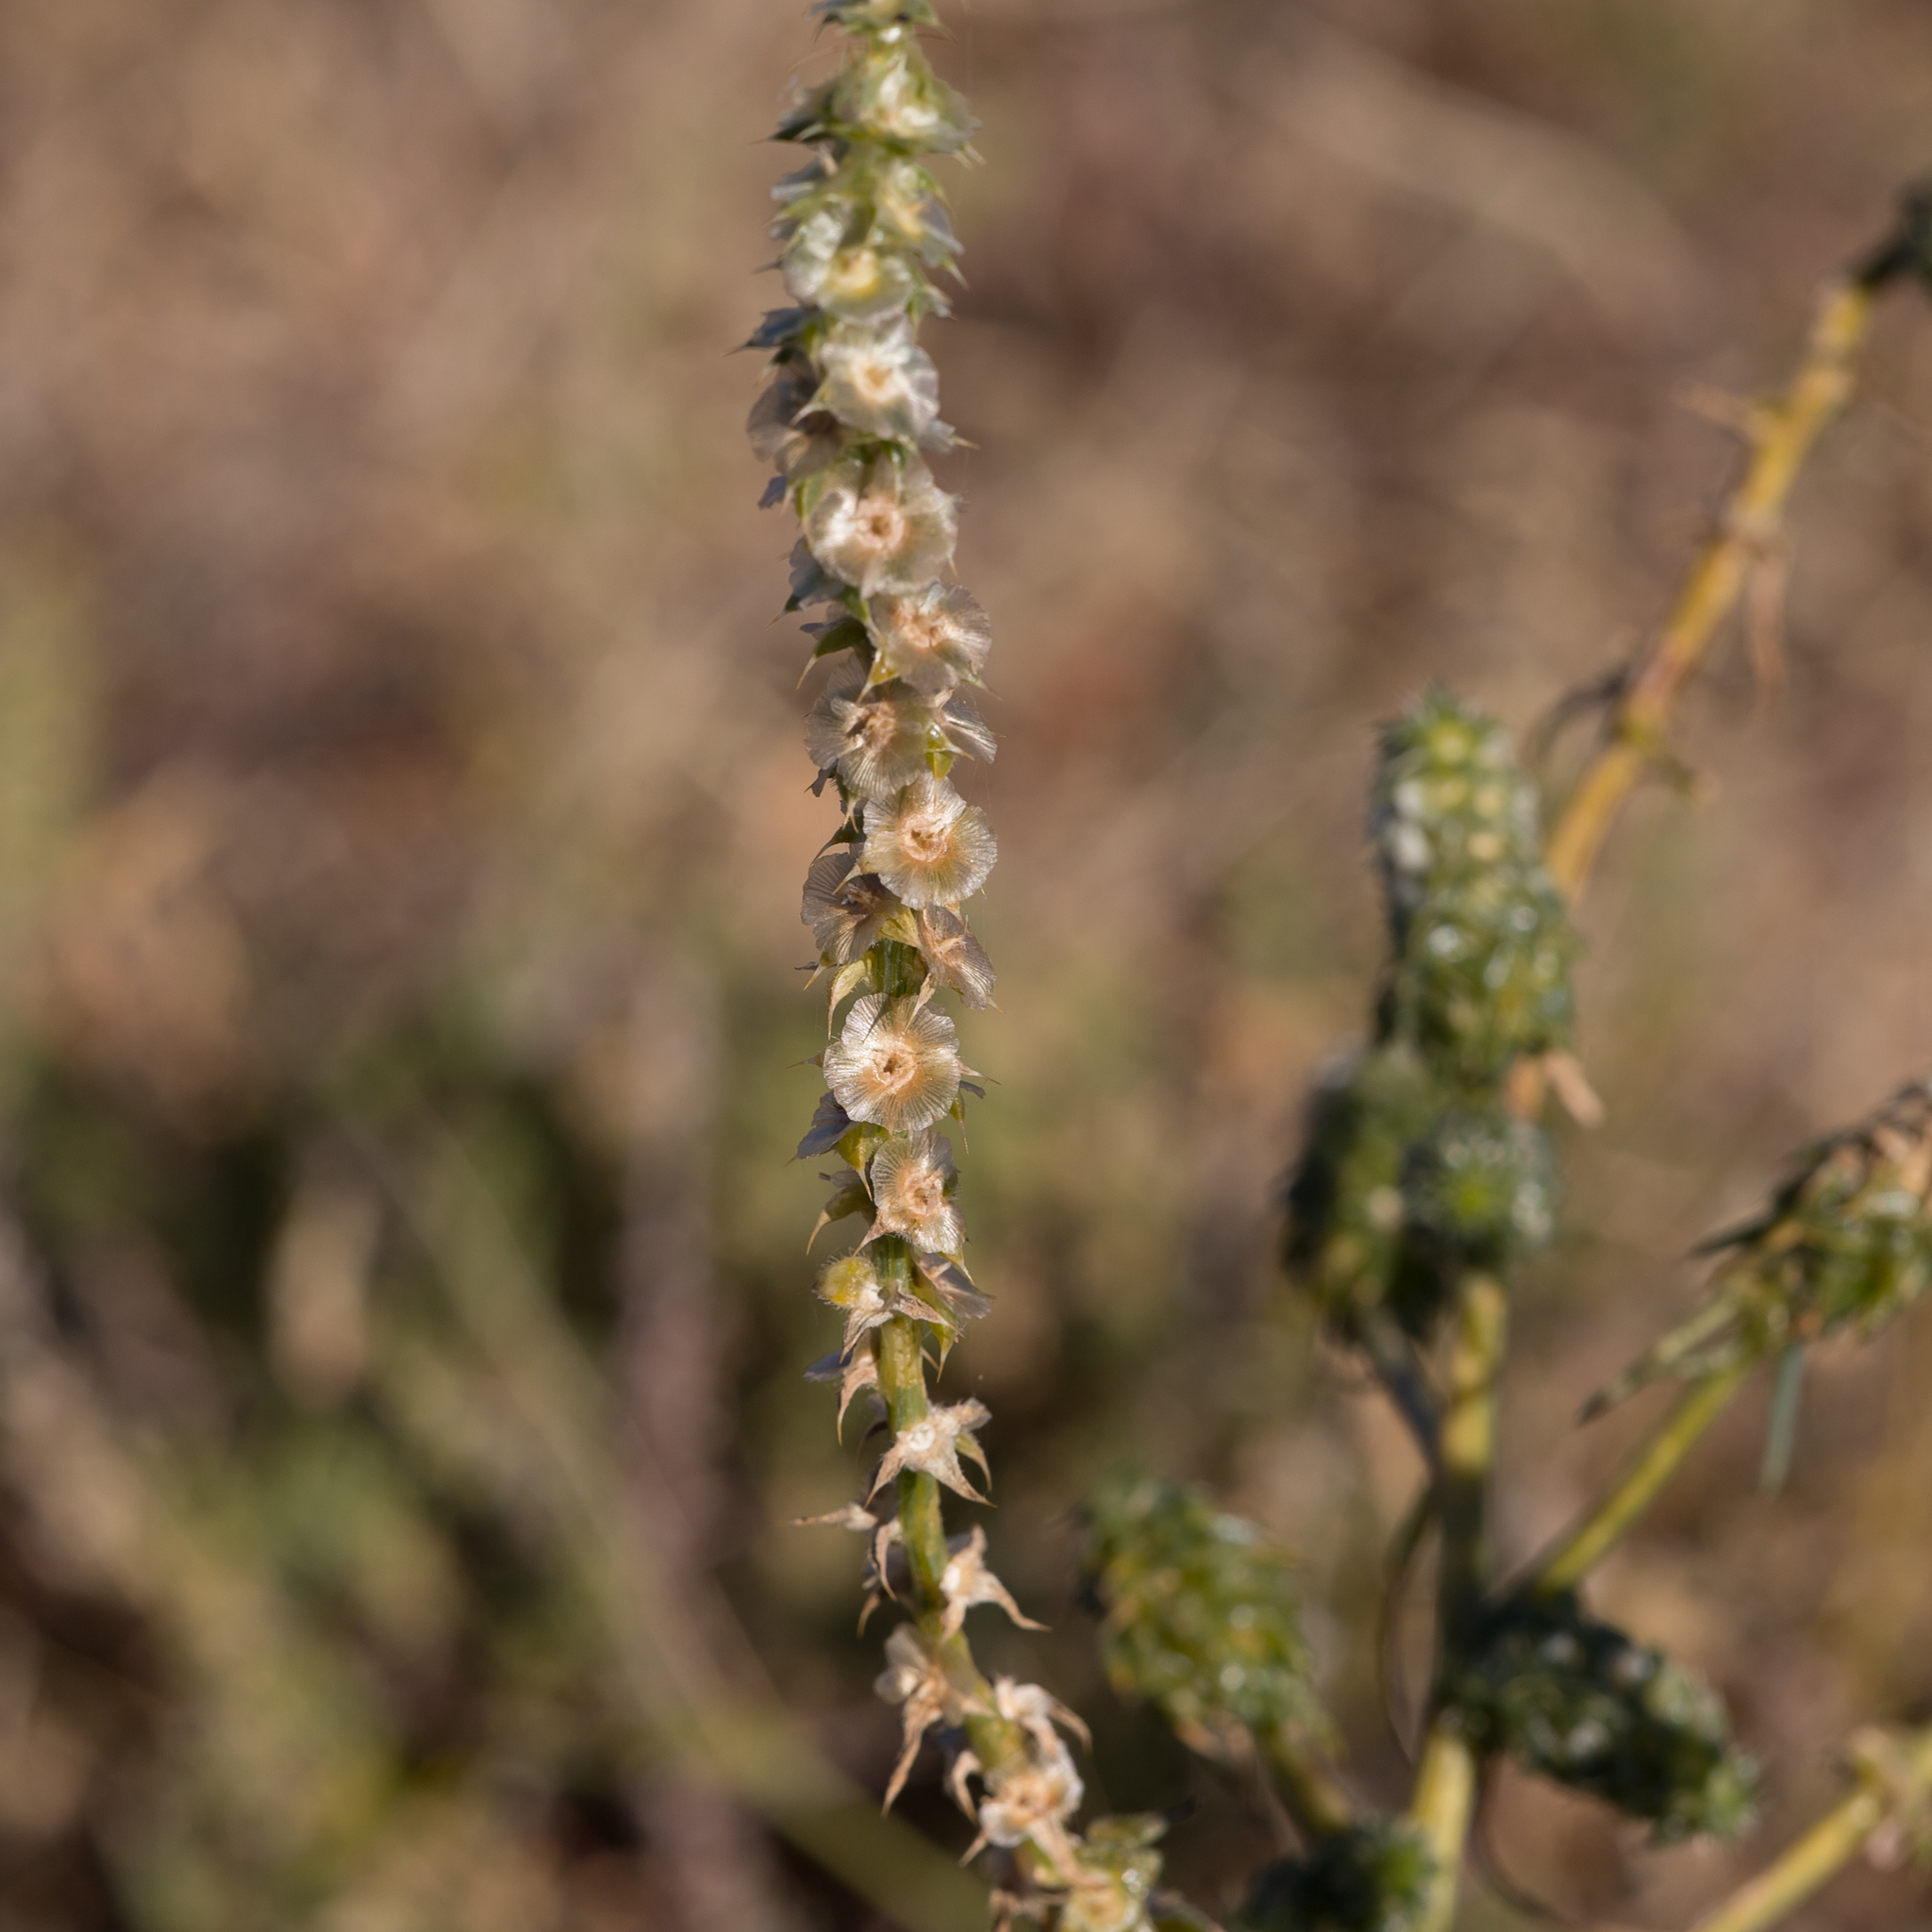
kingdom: Plantae
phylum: Tracheophyta
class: Magnoliopsida
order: Caryophyllales
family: Amaranthaceae
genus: Salsola
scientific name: Salsola australis
